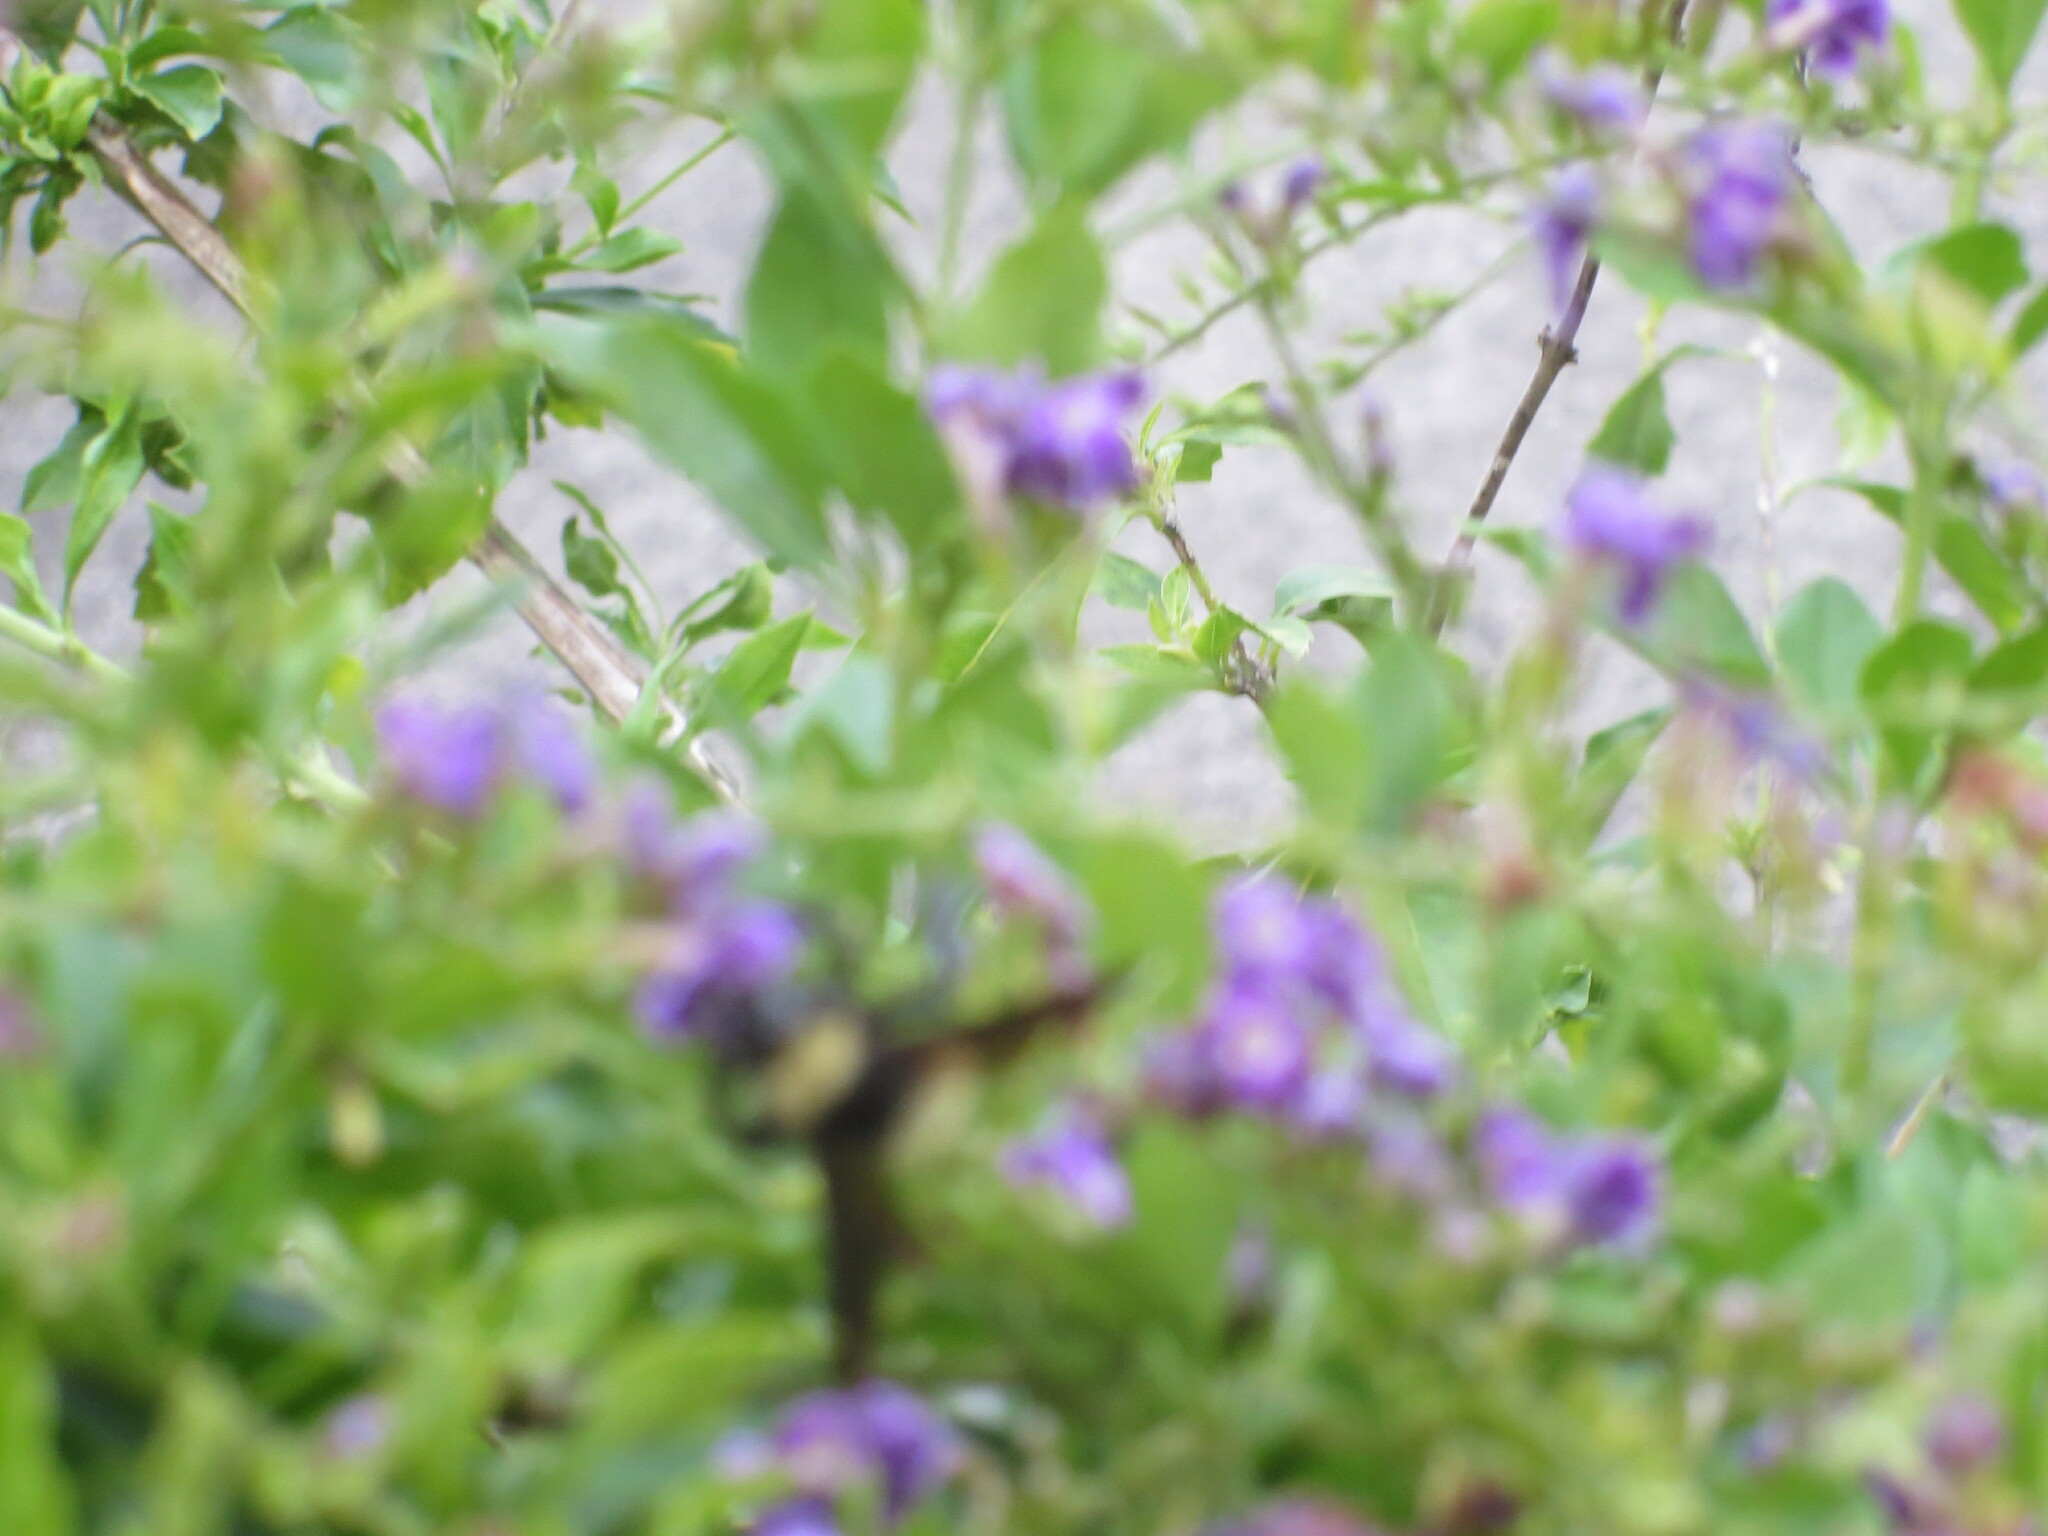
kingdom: Animalia
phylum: Arthropoda
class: Insecta
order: Hymenoptera
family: Apidae
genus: Bombus
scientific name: Bombus pensylvanicus
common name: Bumble bee
